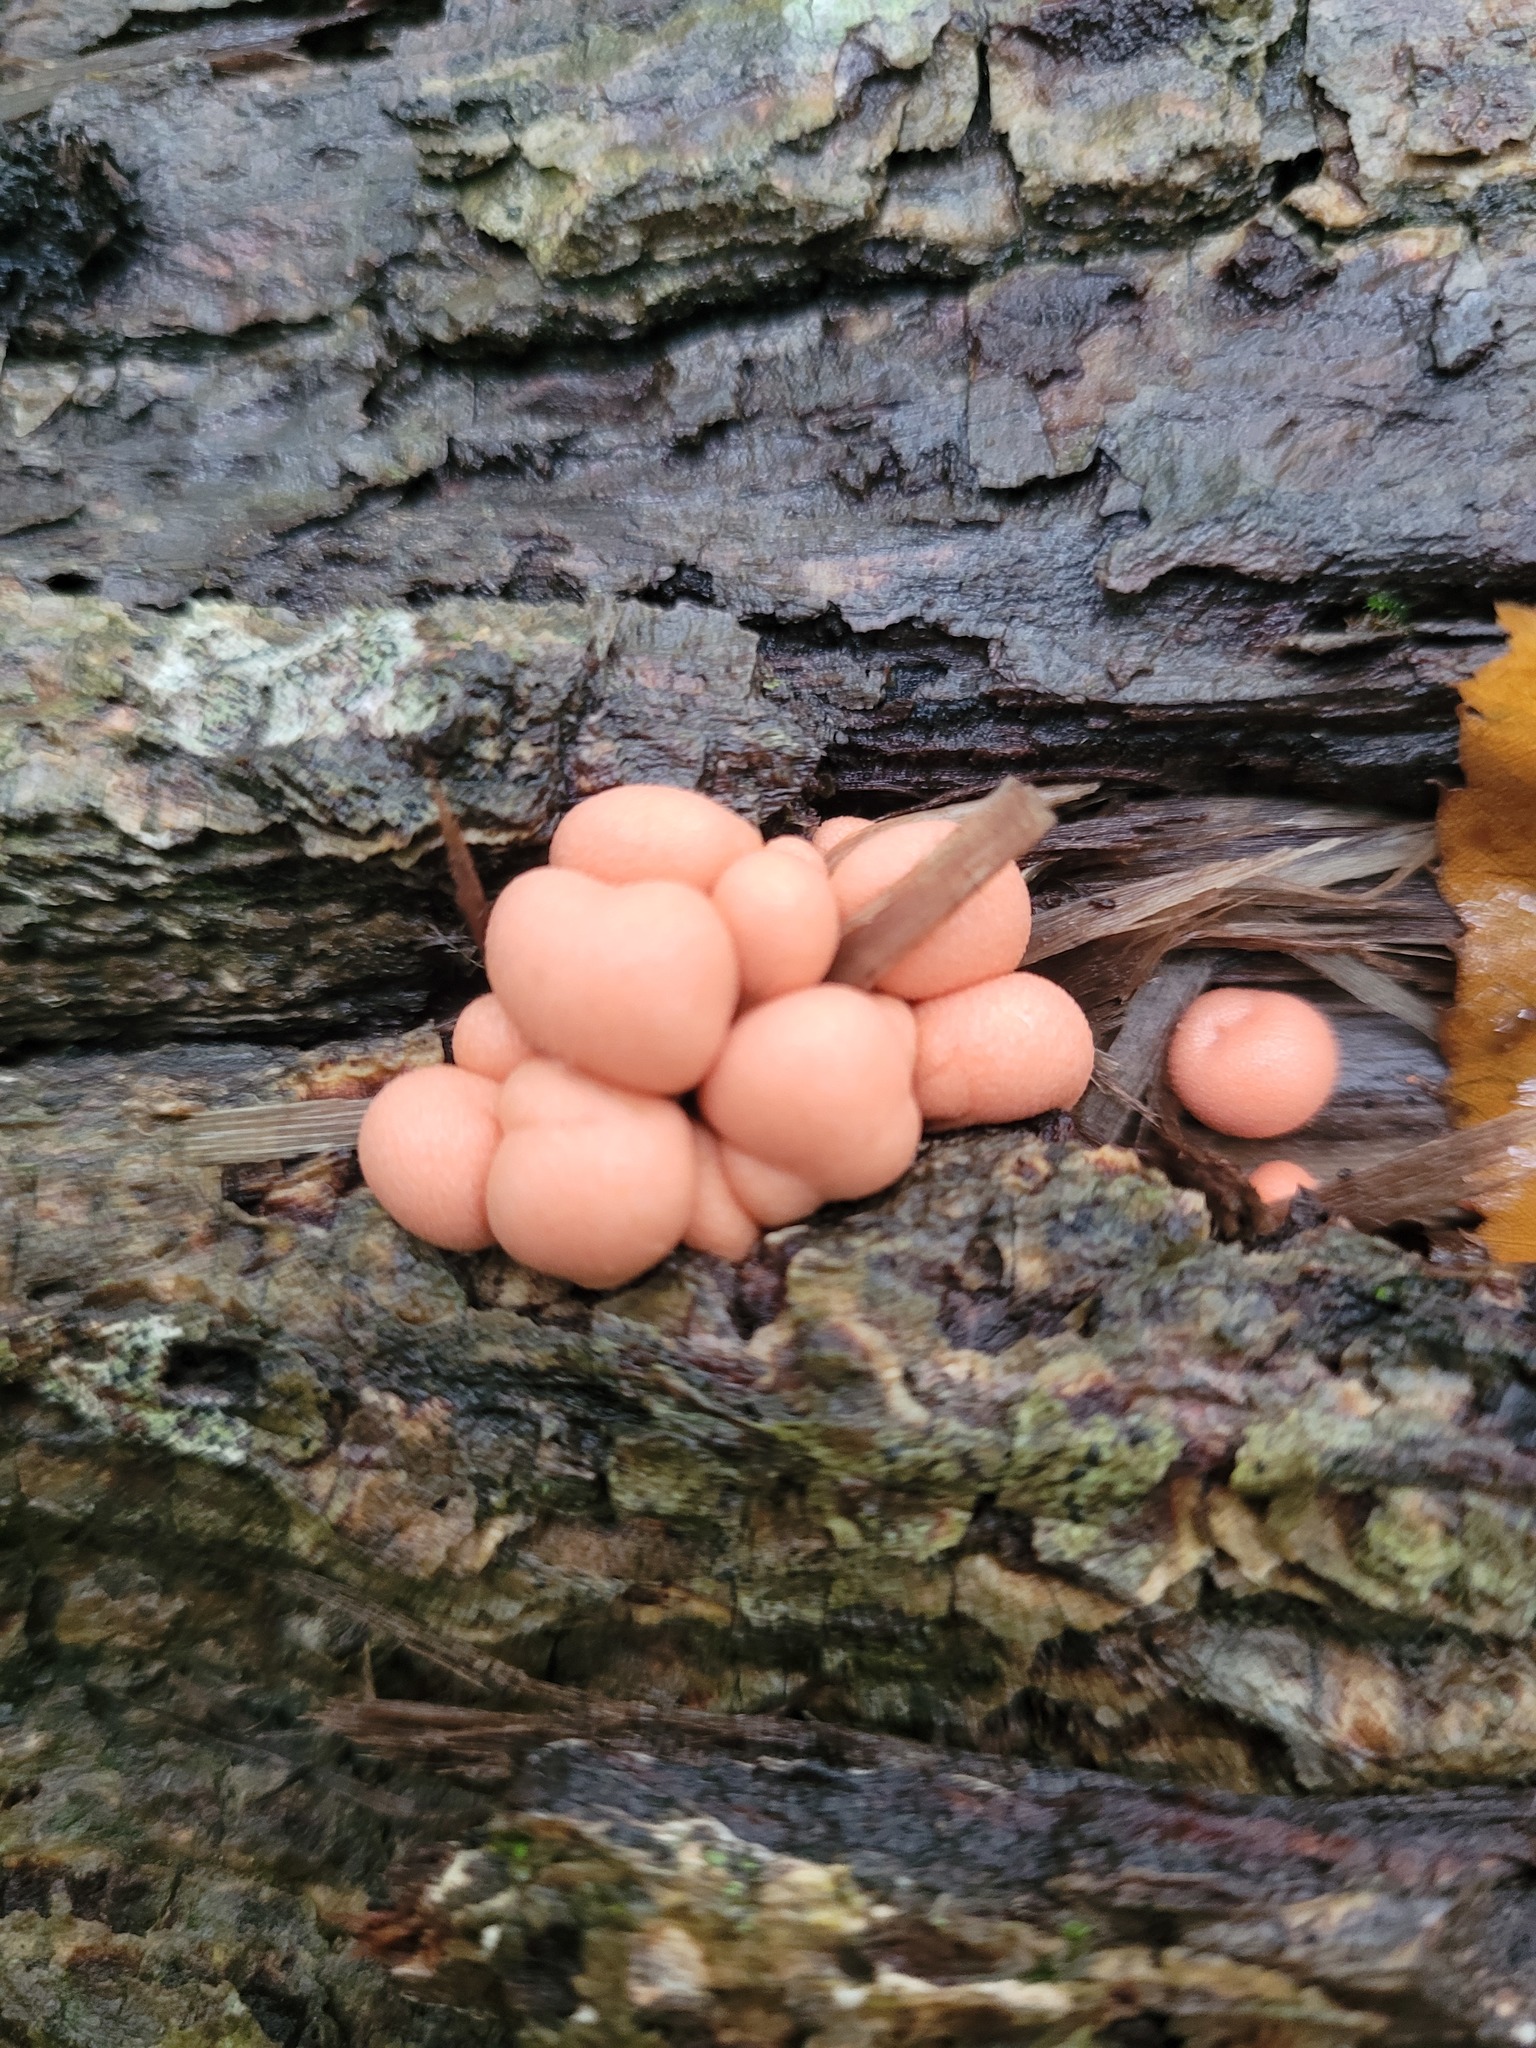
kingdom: Protozoa
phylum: Mycetozoa
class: Myxomycetes
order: Cribrariales
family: Tubiferaceae
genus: Lycogala
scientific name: Lycogala epidendrum
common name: Wolf's milk
